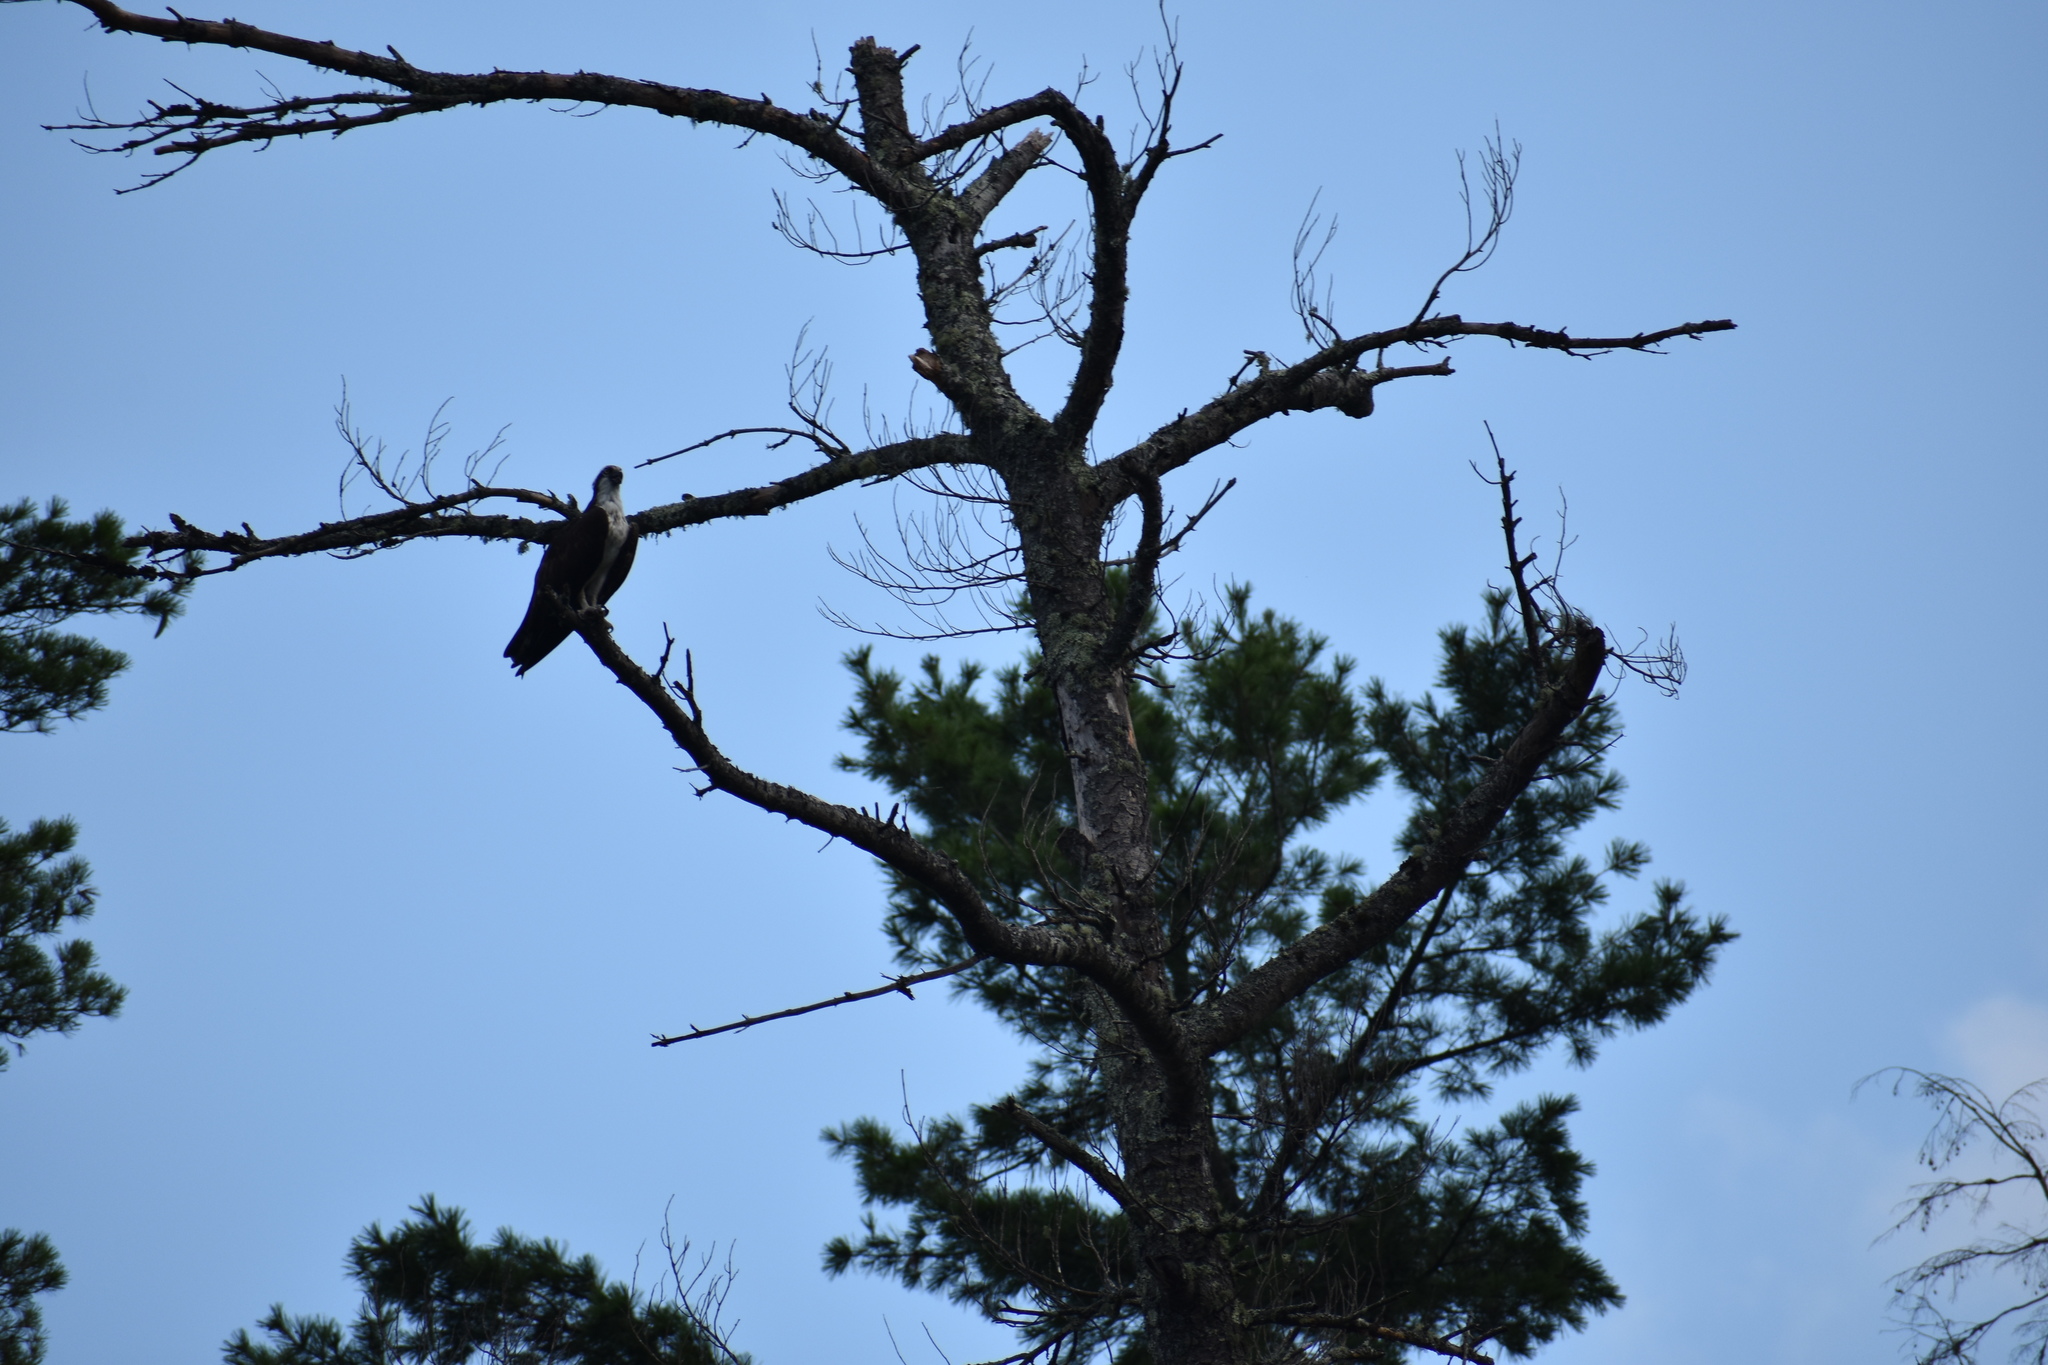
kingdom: Animalia
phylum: Chordata
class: Aves
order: Accipitriformes
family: Pandionidae
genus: Pandion
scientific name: Pandion haliaetus
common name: Osprey
